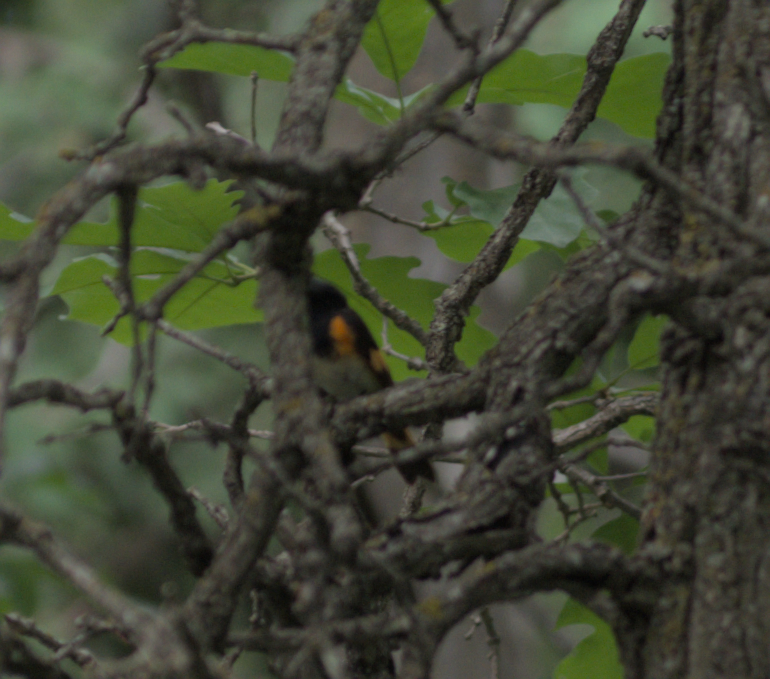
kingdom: Animalia
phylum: Chordata
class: Aves
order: Passeriformes
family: Parulidae
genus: Setophaga
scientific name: Setophaga ruticilla
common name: American redstart
